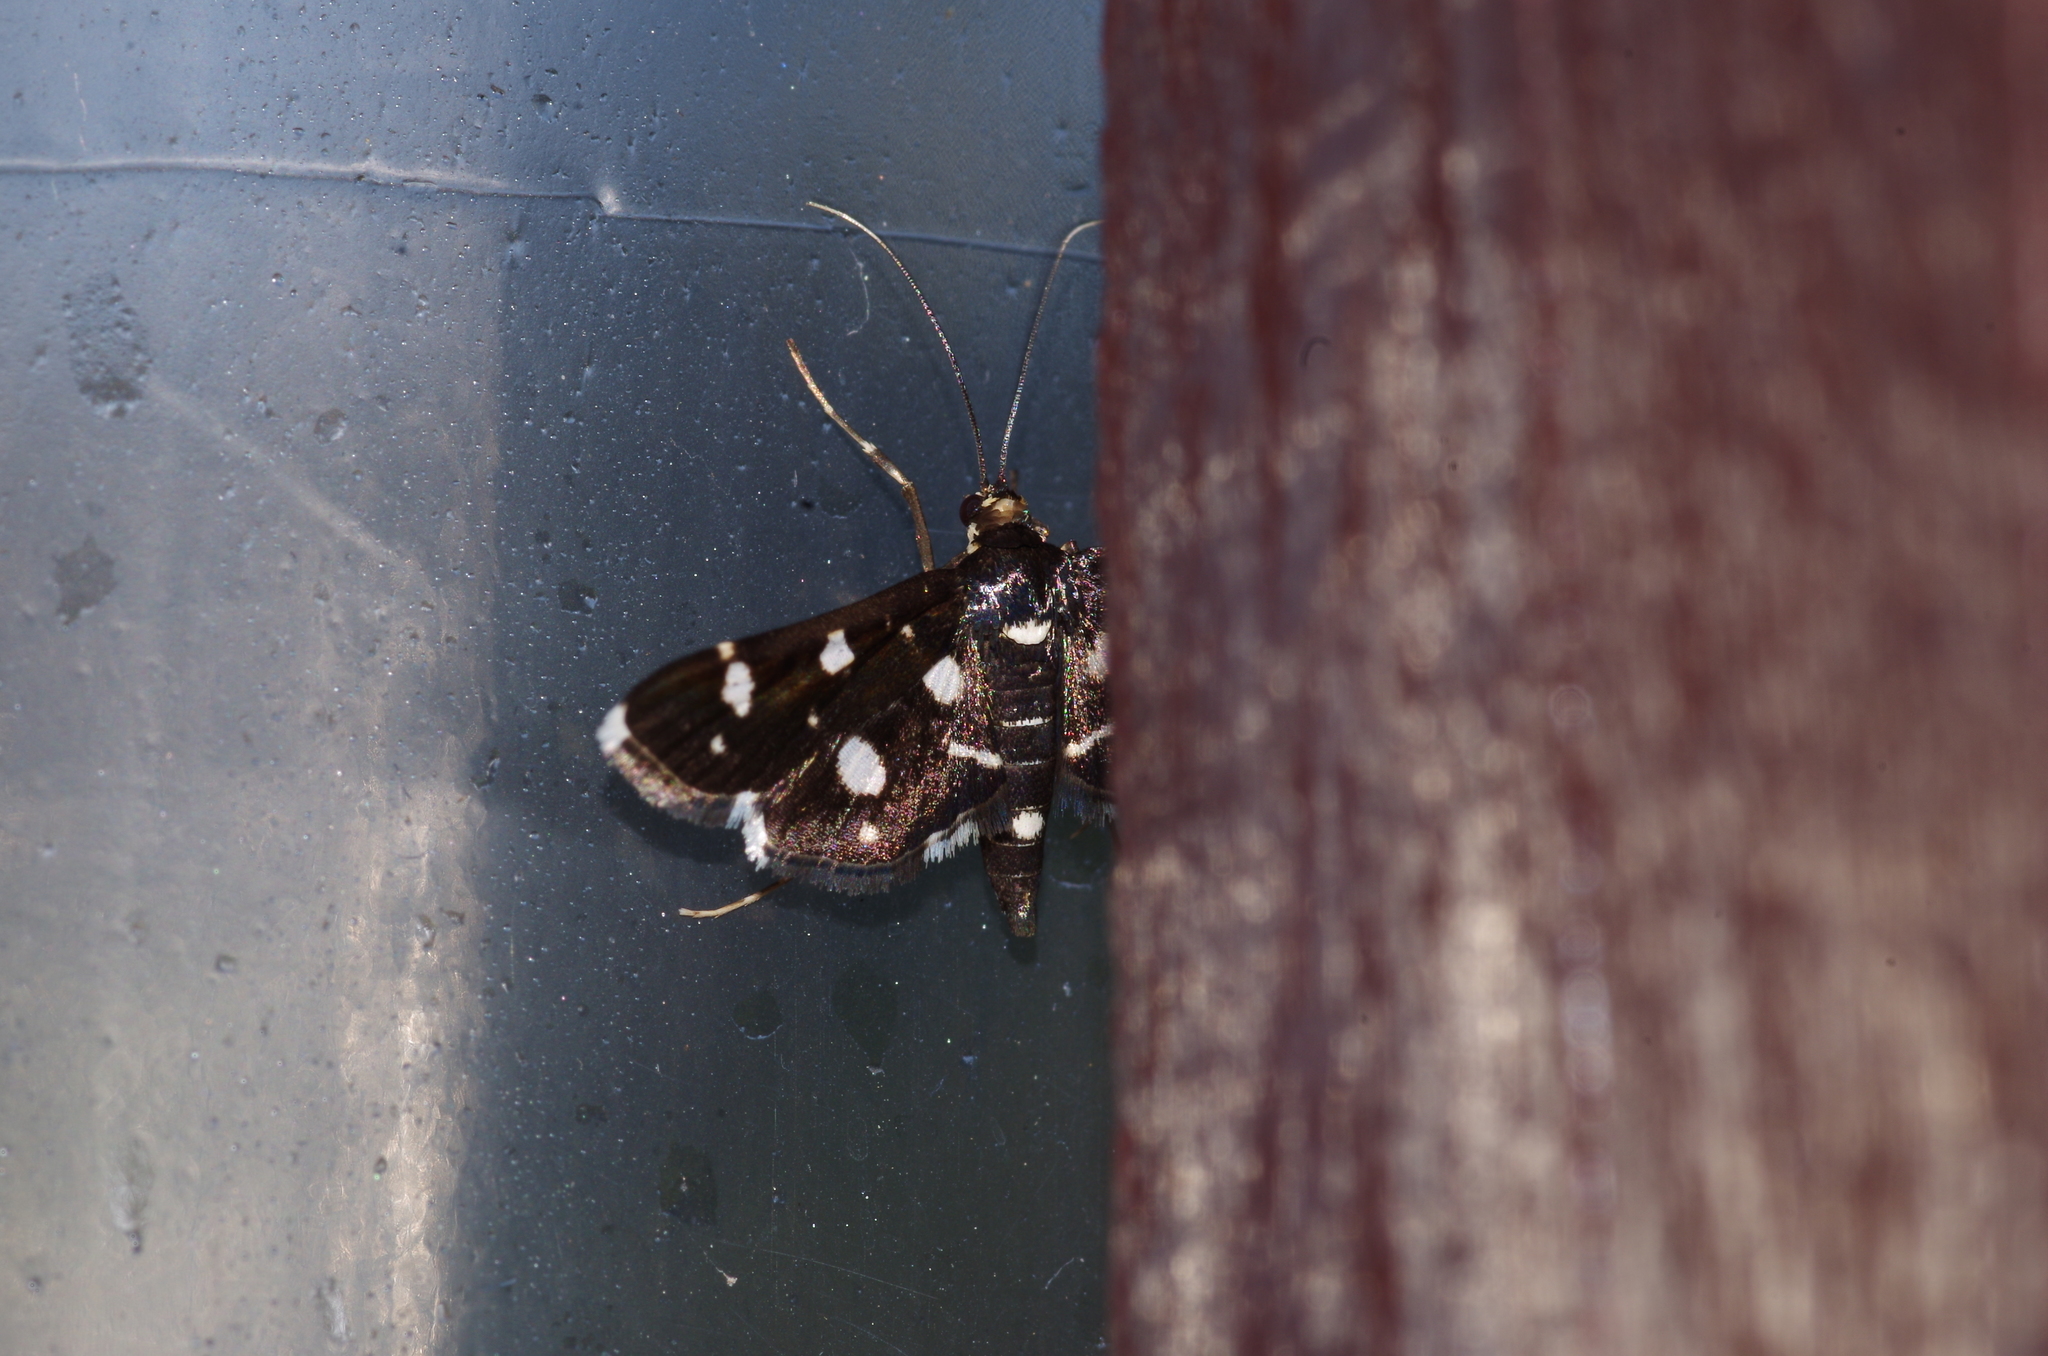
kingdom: Animalia
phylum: Arthropoda
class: Insecta
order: Lepidoptera
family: Crambidae
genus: Bocchoris
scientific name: Bocchoris inspersalis
